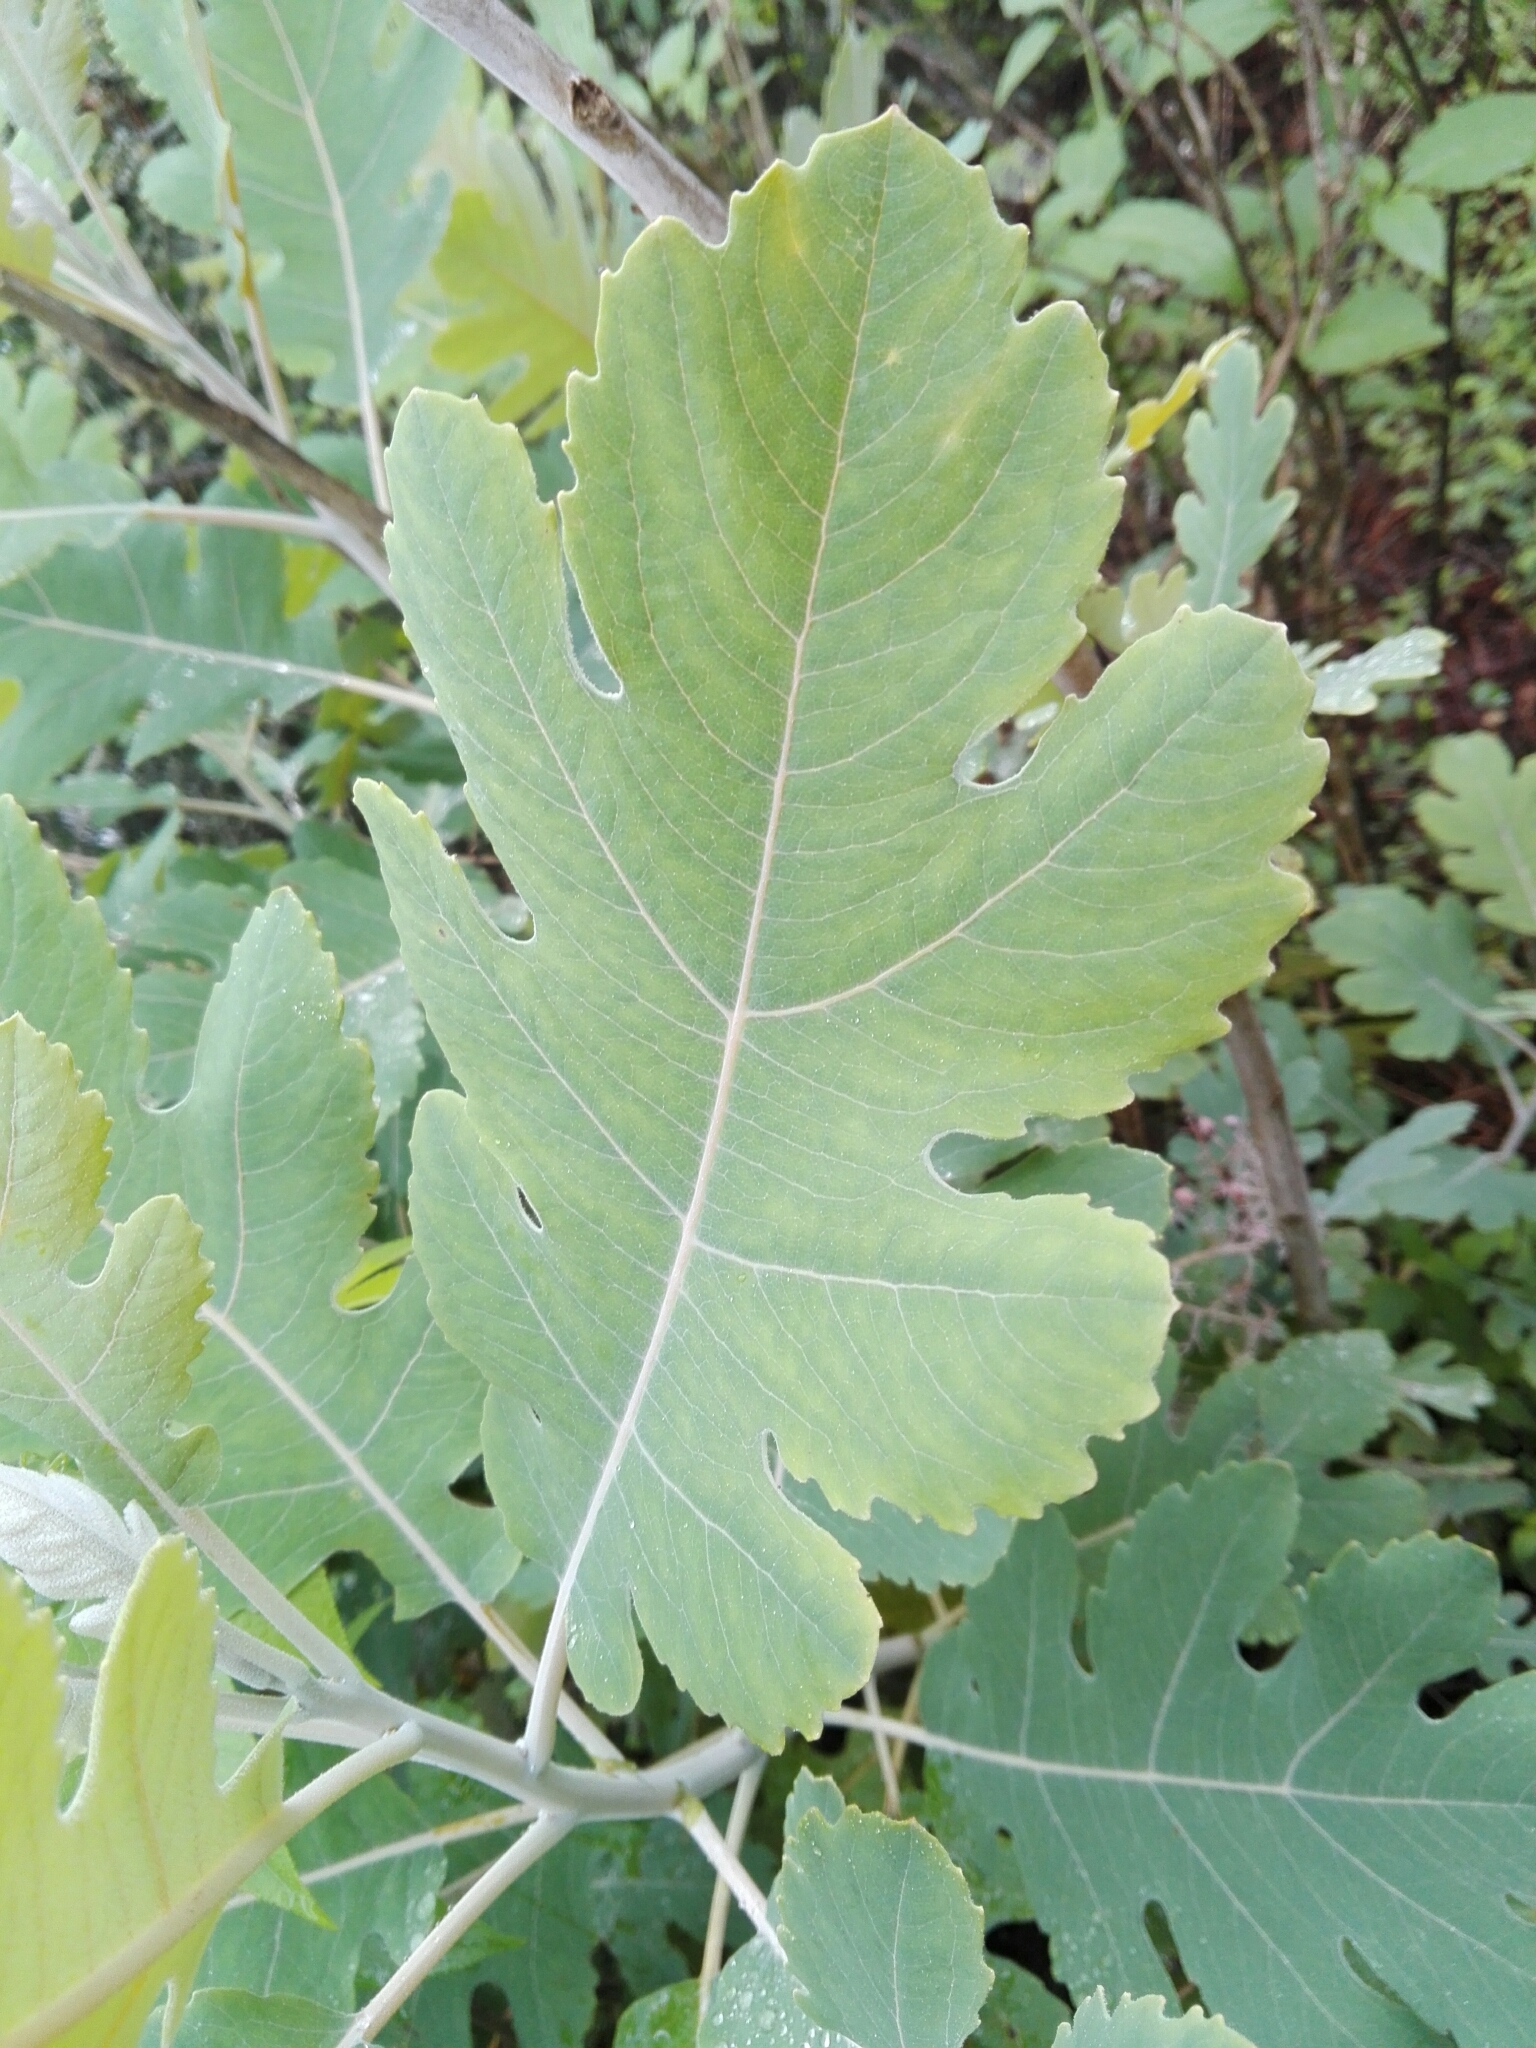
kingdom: Plantae
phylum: Tracheophyta
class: Magnoliopsida
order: Ranunculales
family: Papaveraceae
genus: Bocconia
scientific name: Bocconia frutescens
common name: Tree poppy
